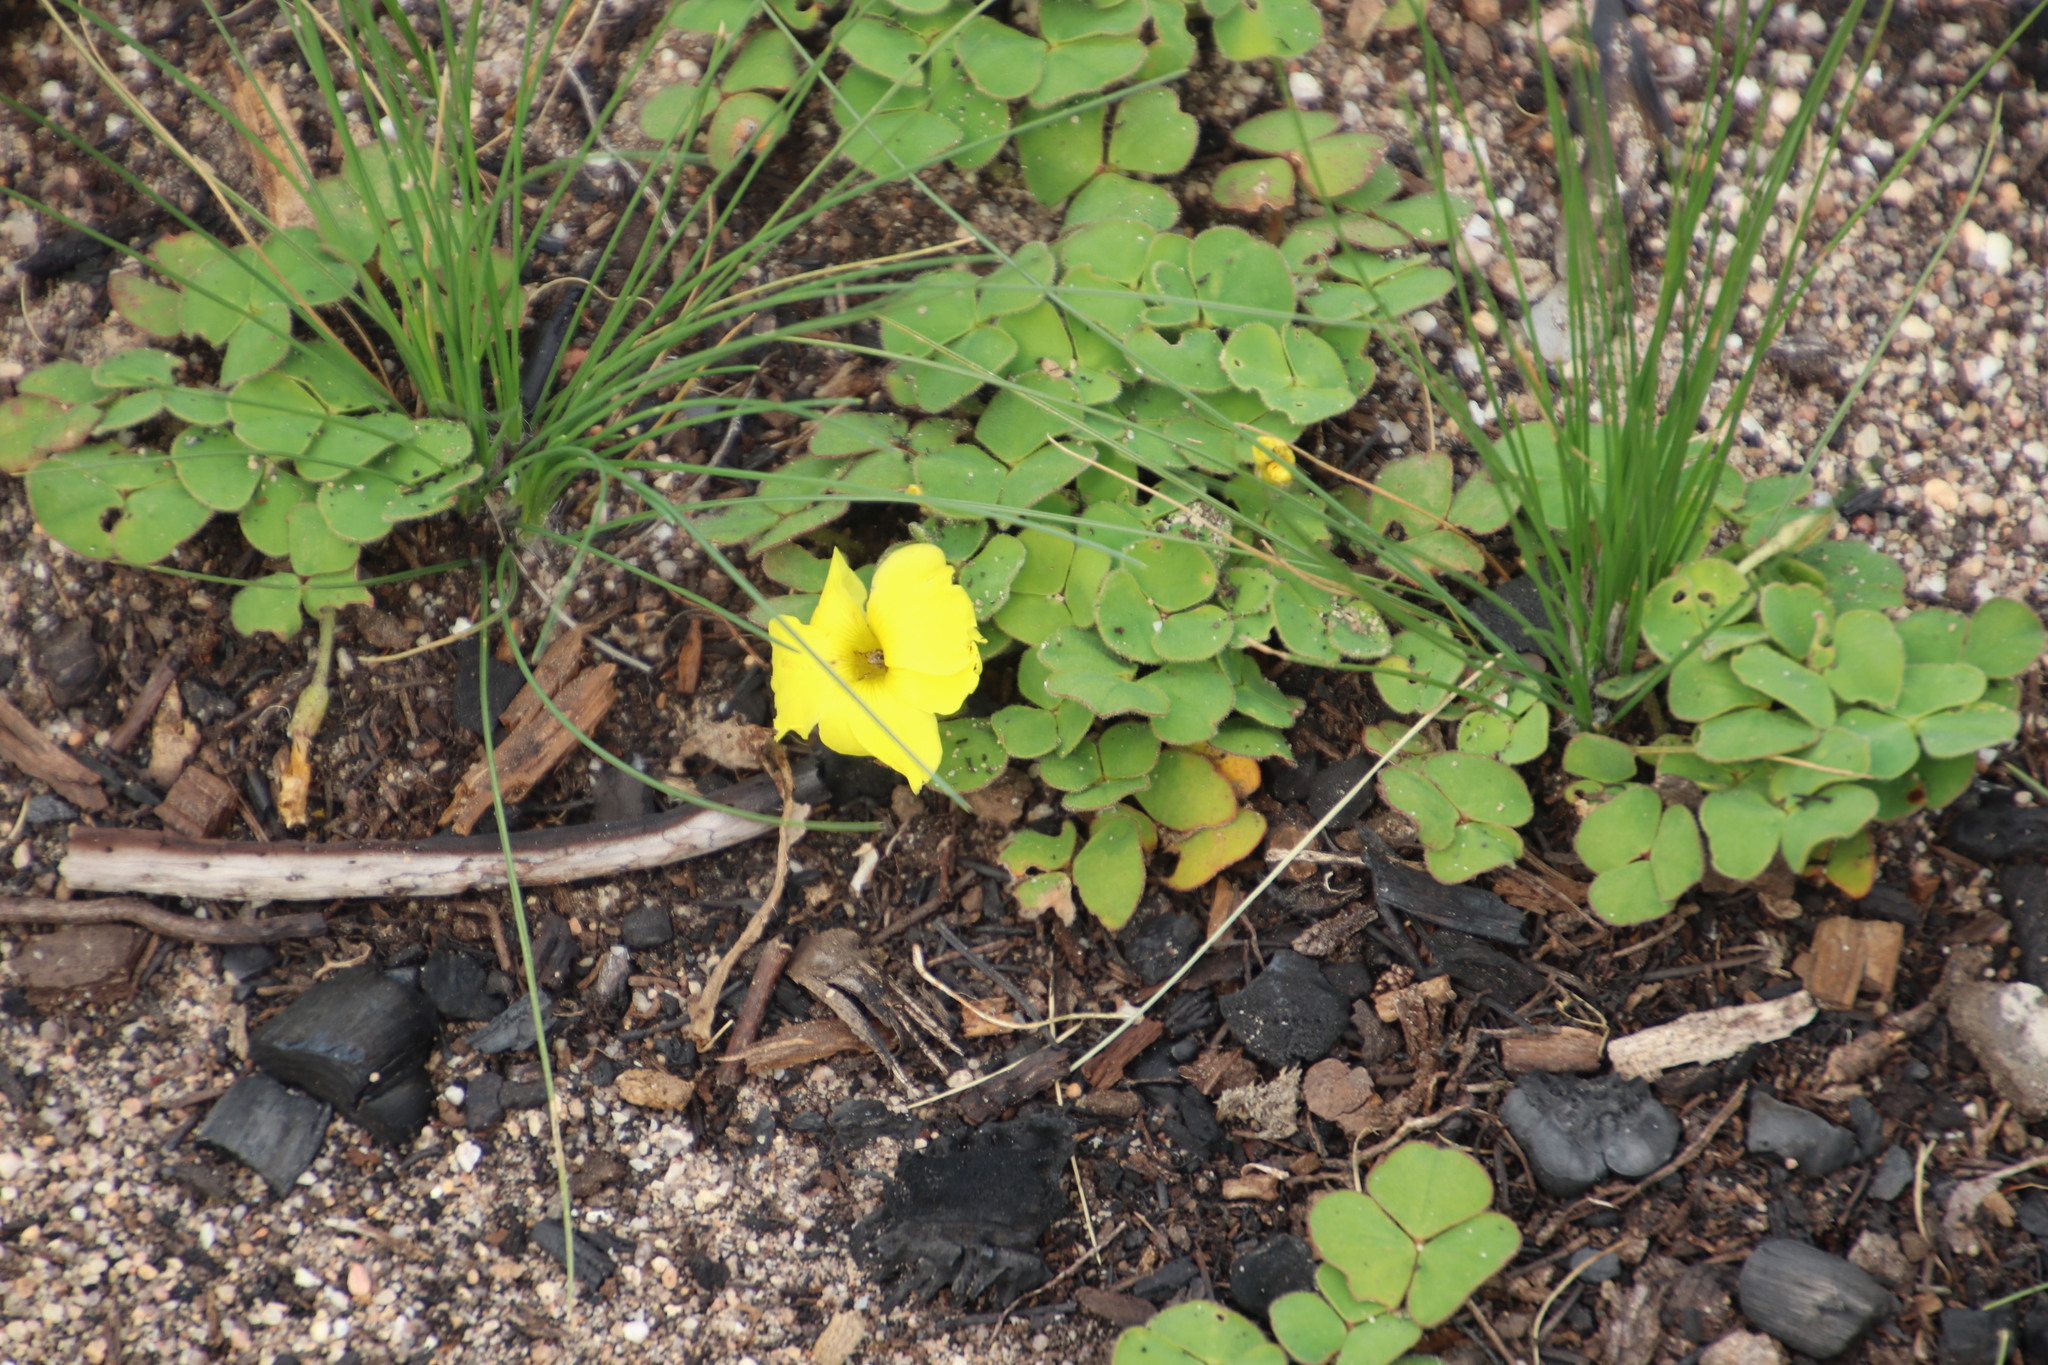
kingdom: Plantae
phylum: Tracheophyta
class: Magnoliopsida
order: Oxalidales
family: Oxalidaceae
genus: Oxalis
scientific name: Oxalis luteola
